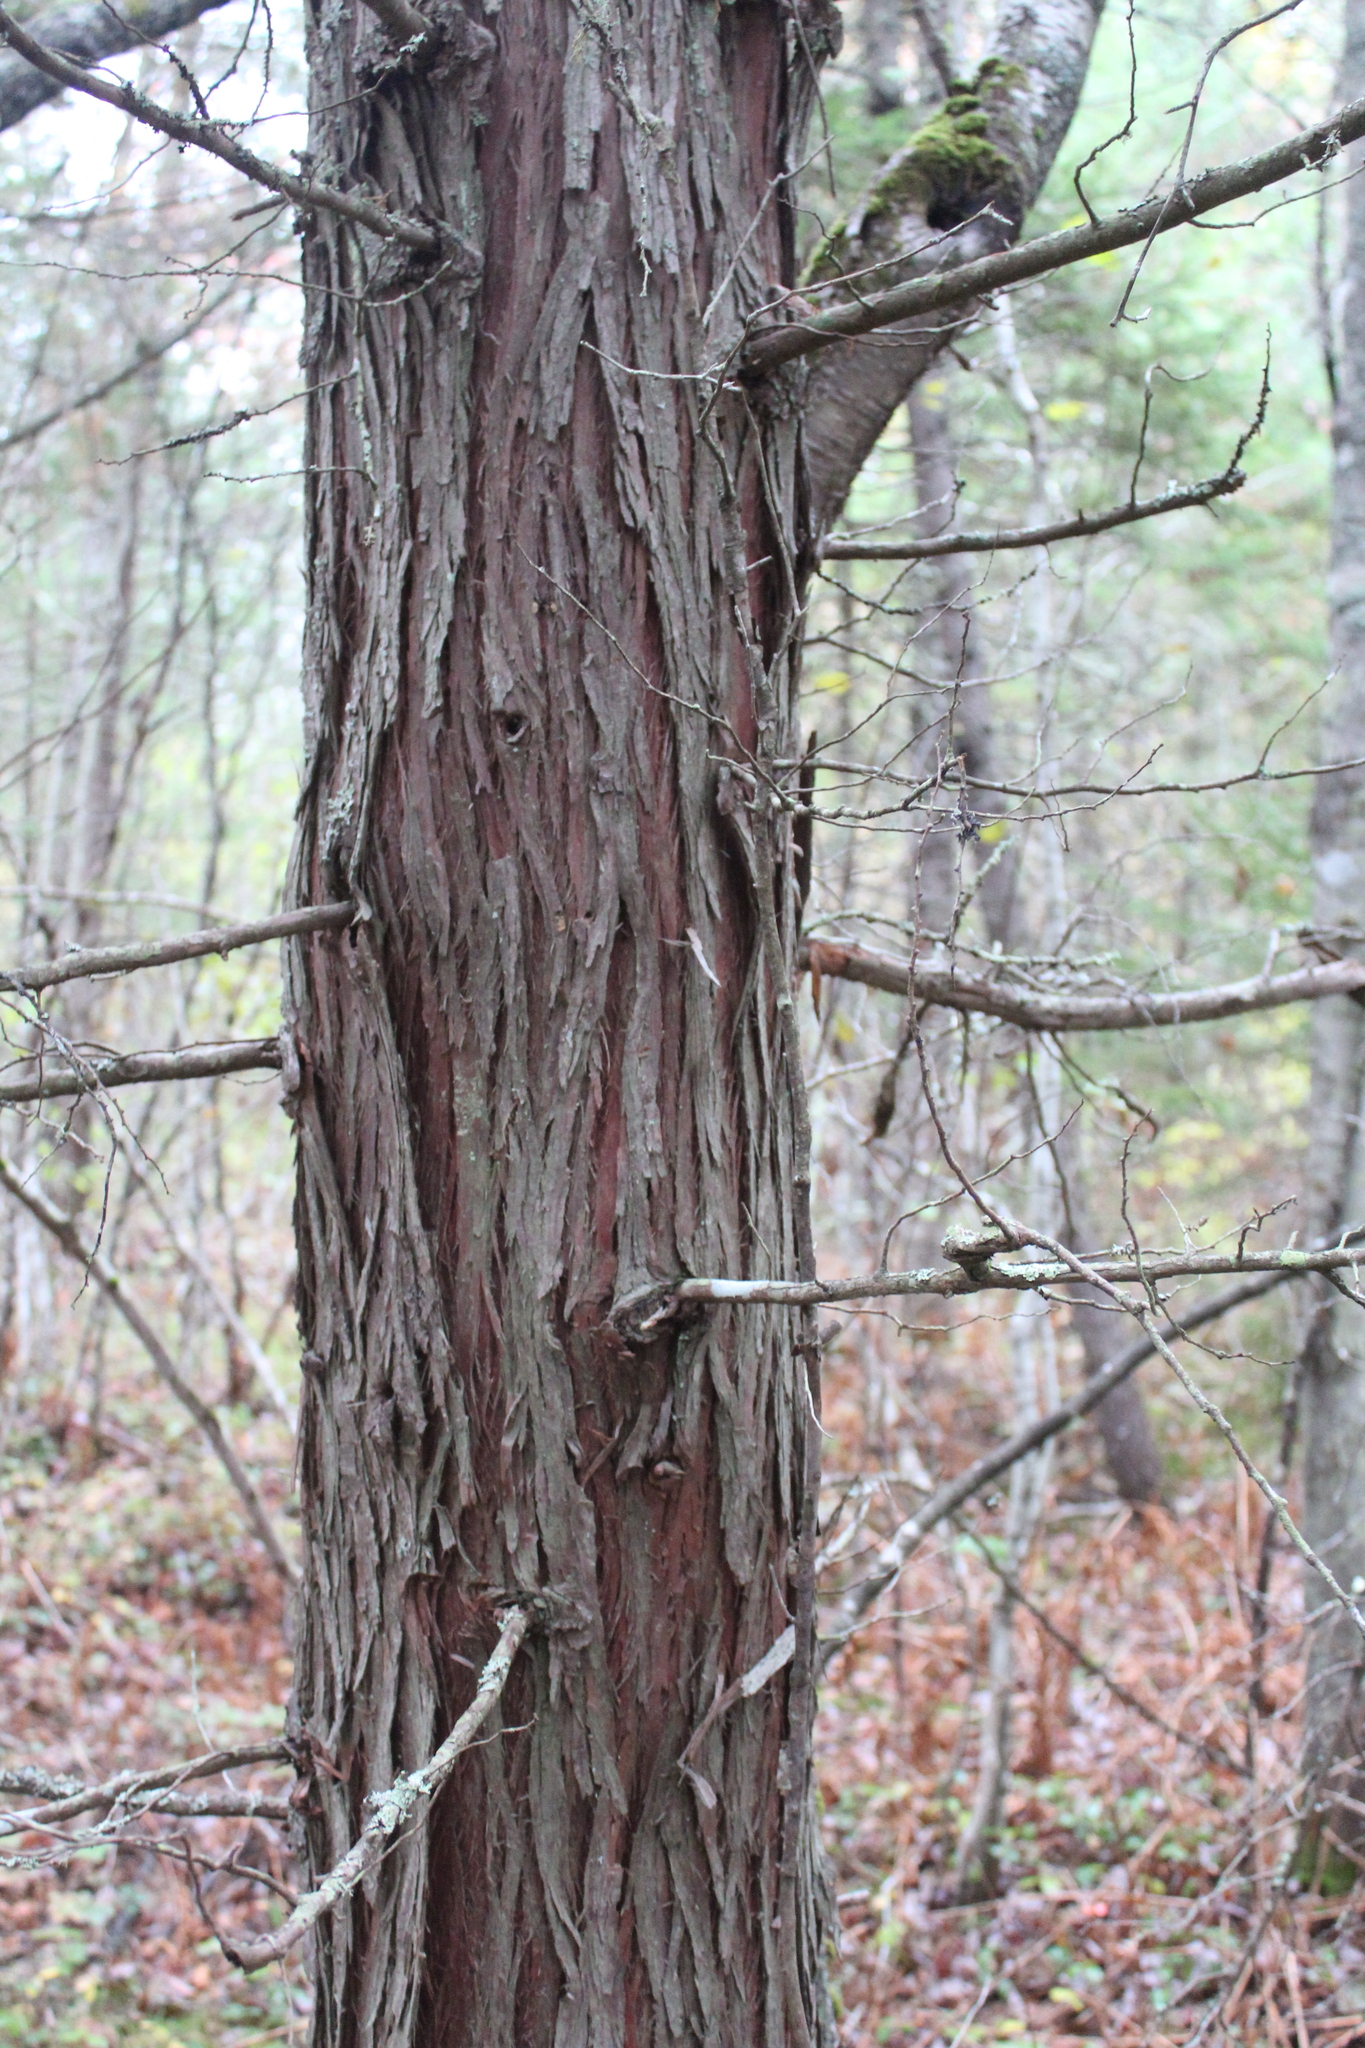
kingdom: Plantae
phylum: Tracheophyta
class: Pinopsida
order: Pinales
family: Cupressaceae
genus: Chamaecyparis
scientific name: Chamaecyparis thyoides
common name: Atlantic white cedar
